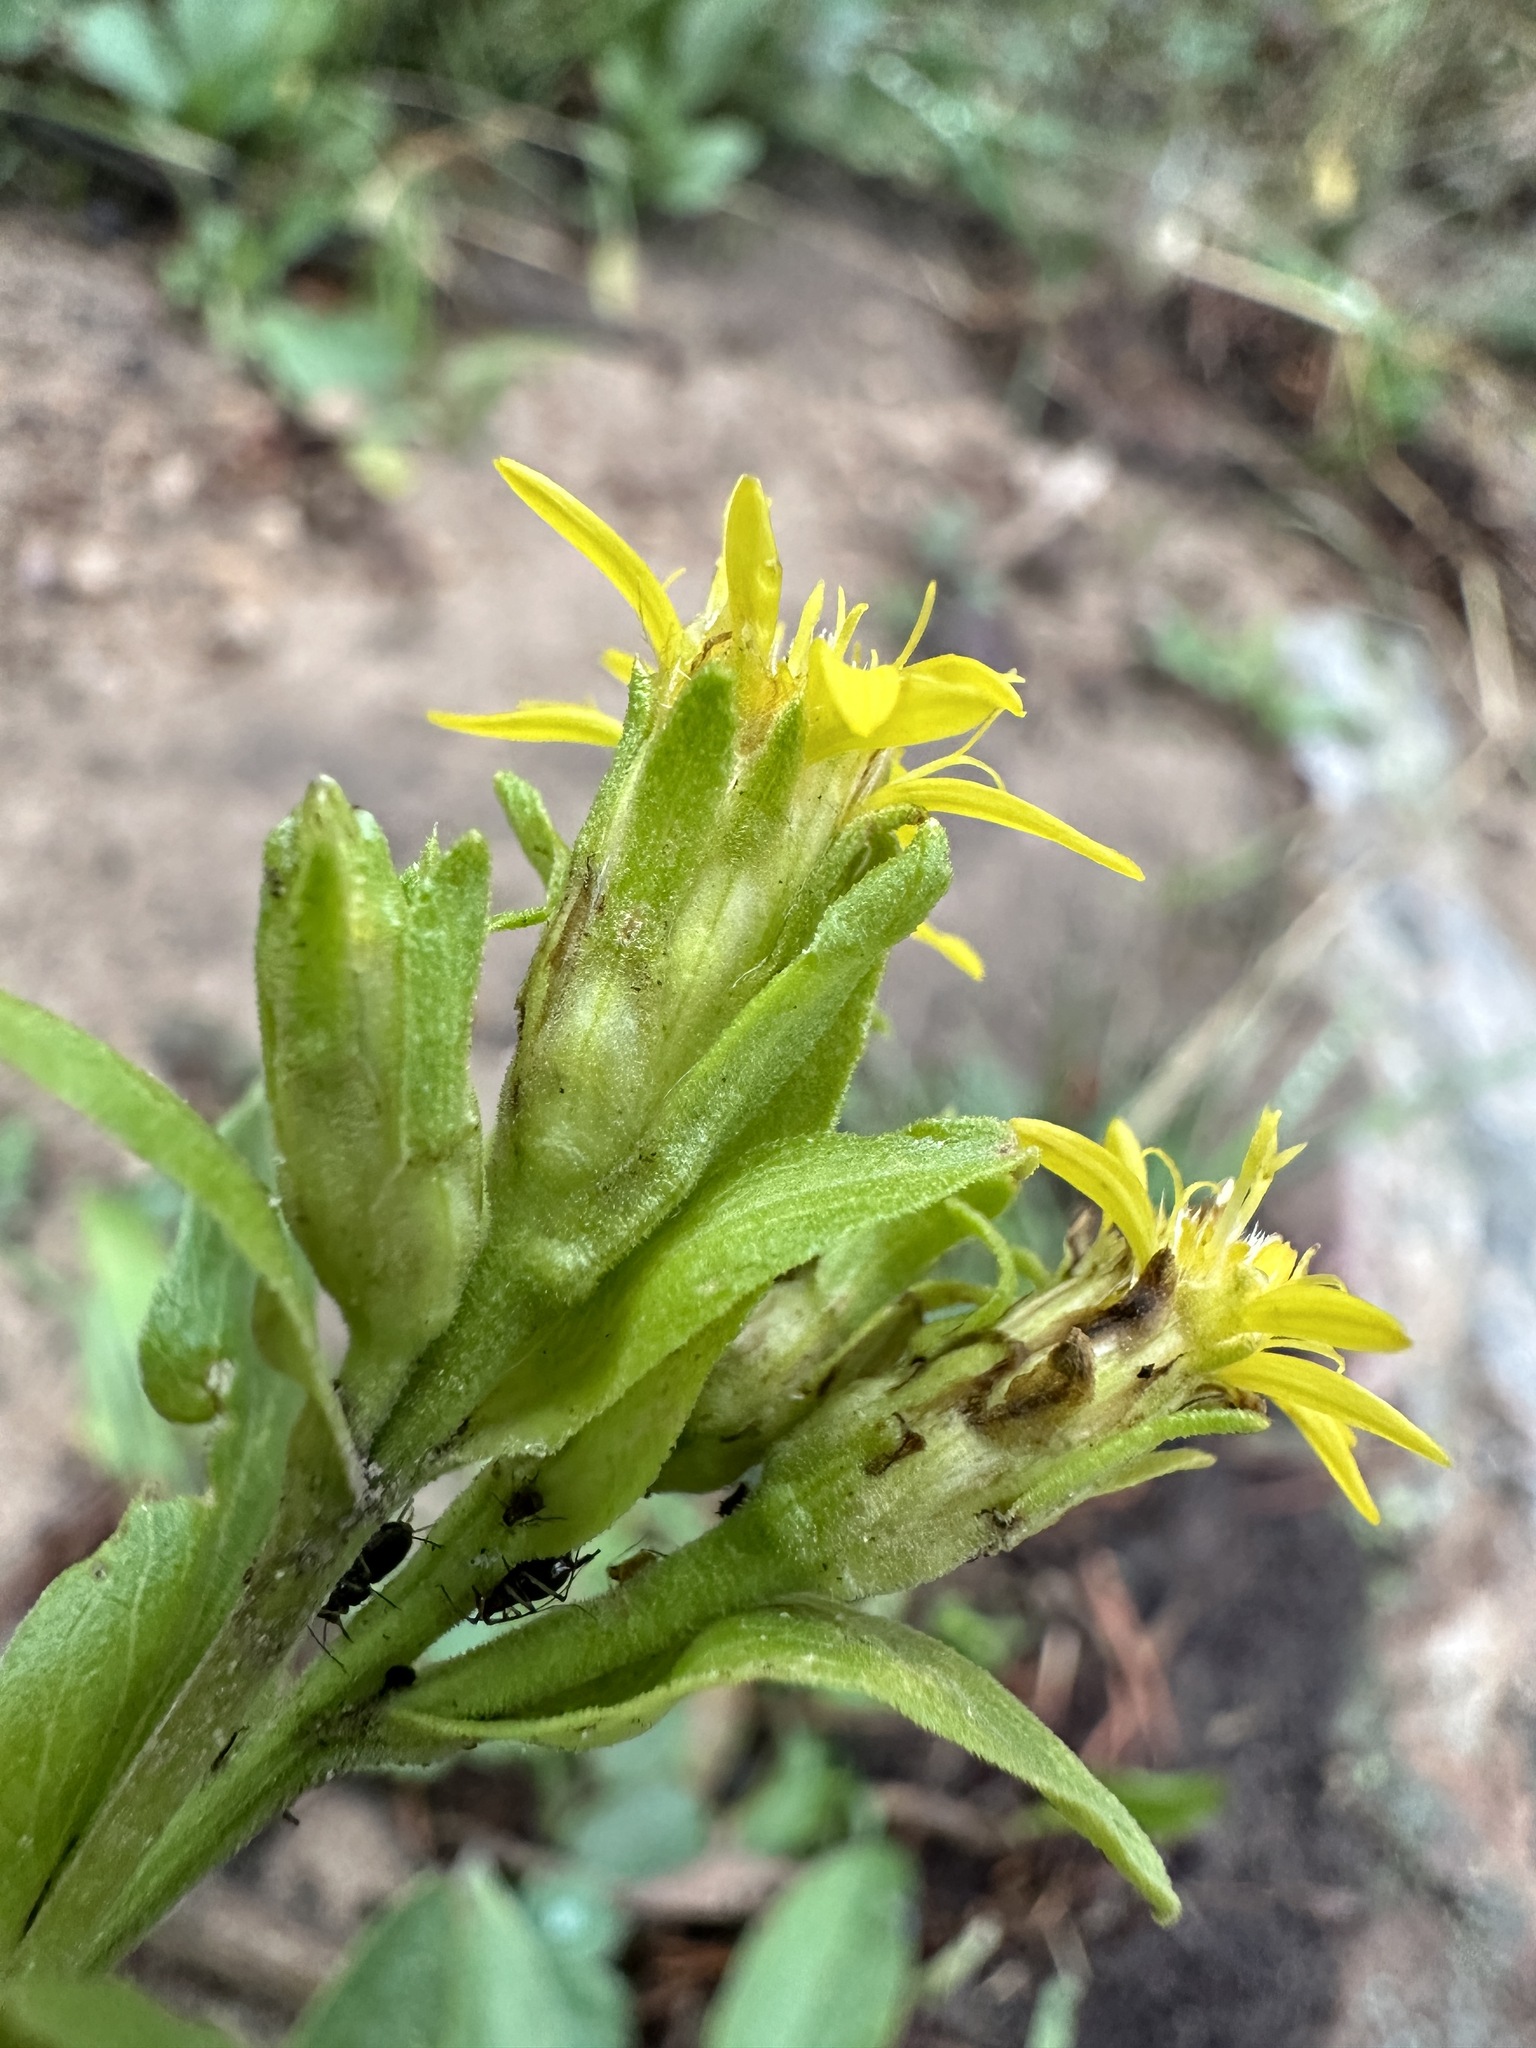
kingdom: Plantae
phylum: Tracheophyta
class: Magnoliopsida
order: Asterales
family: Asteraceae
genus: Oreochrysum
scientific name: Oreochrysum parryi
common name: Parry's goldenweed
